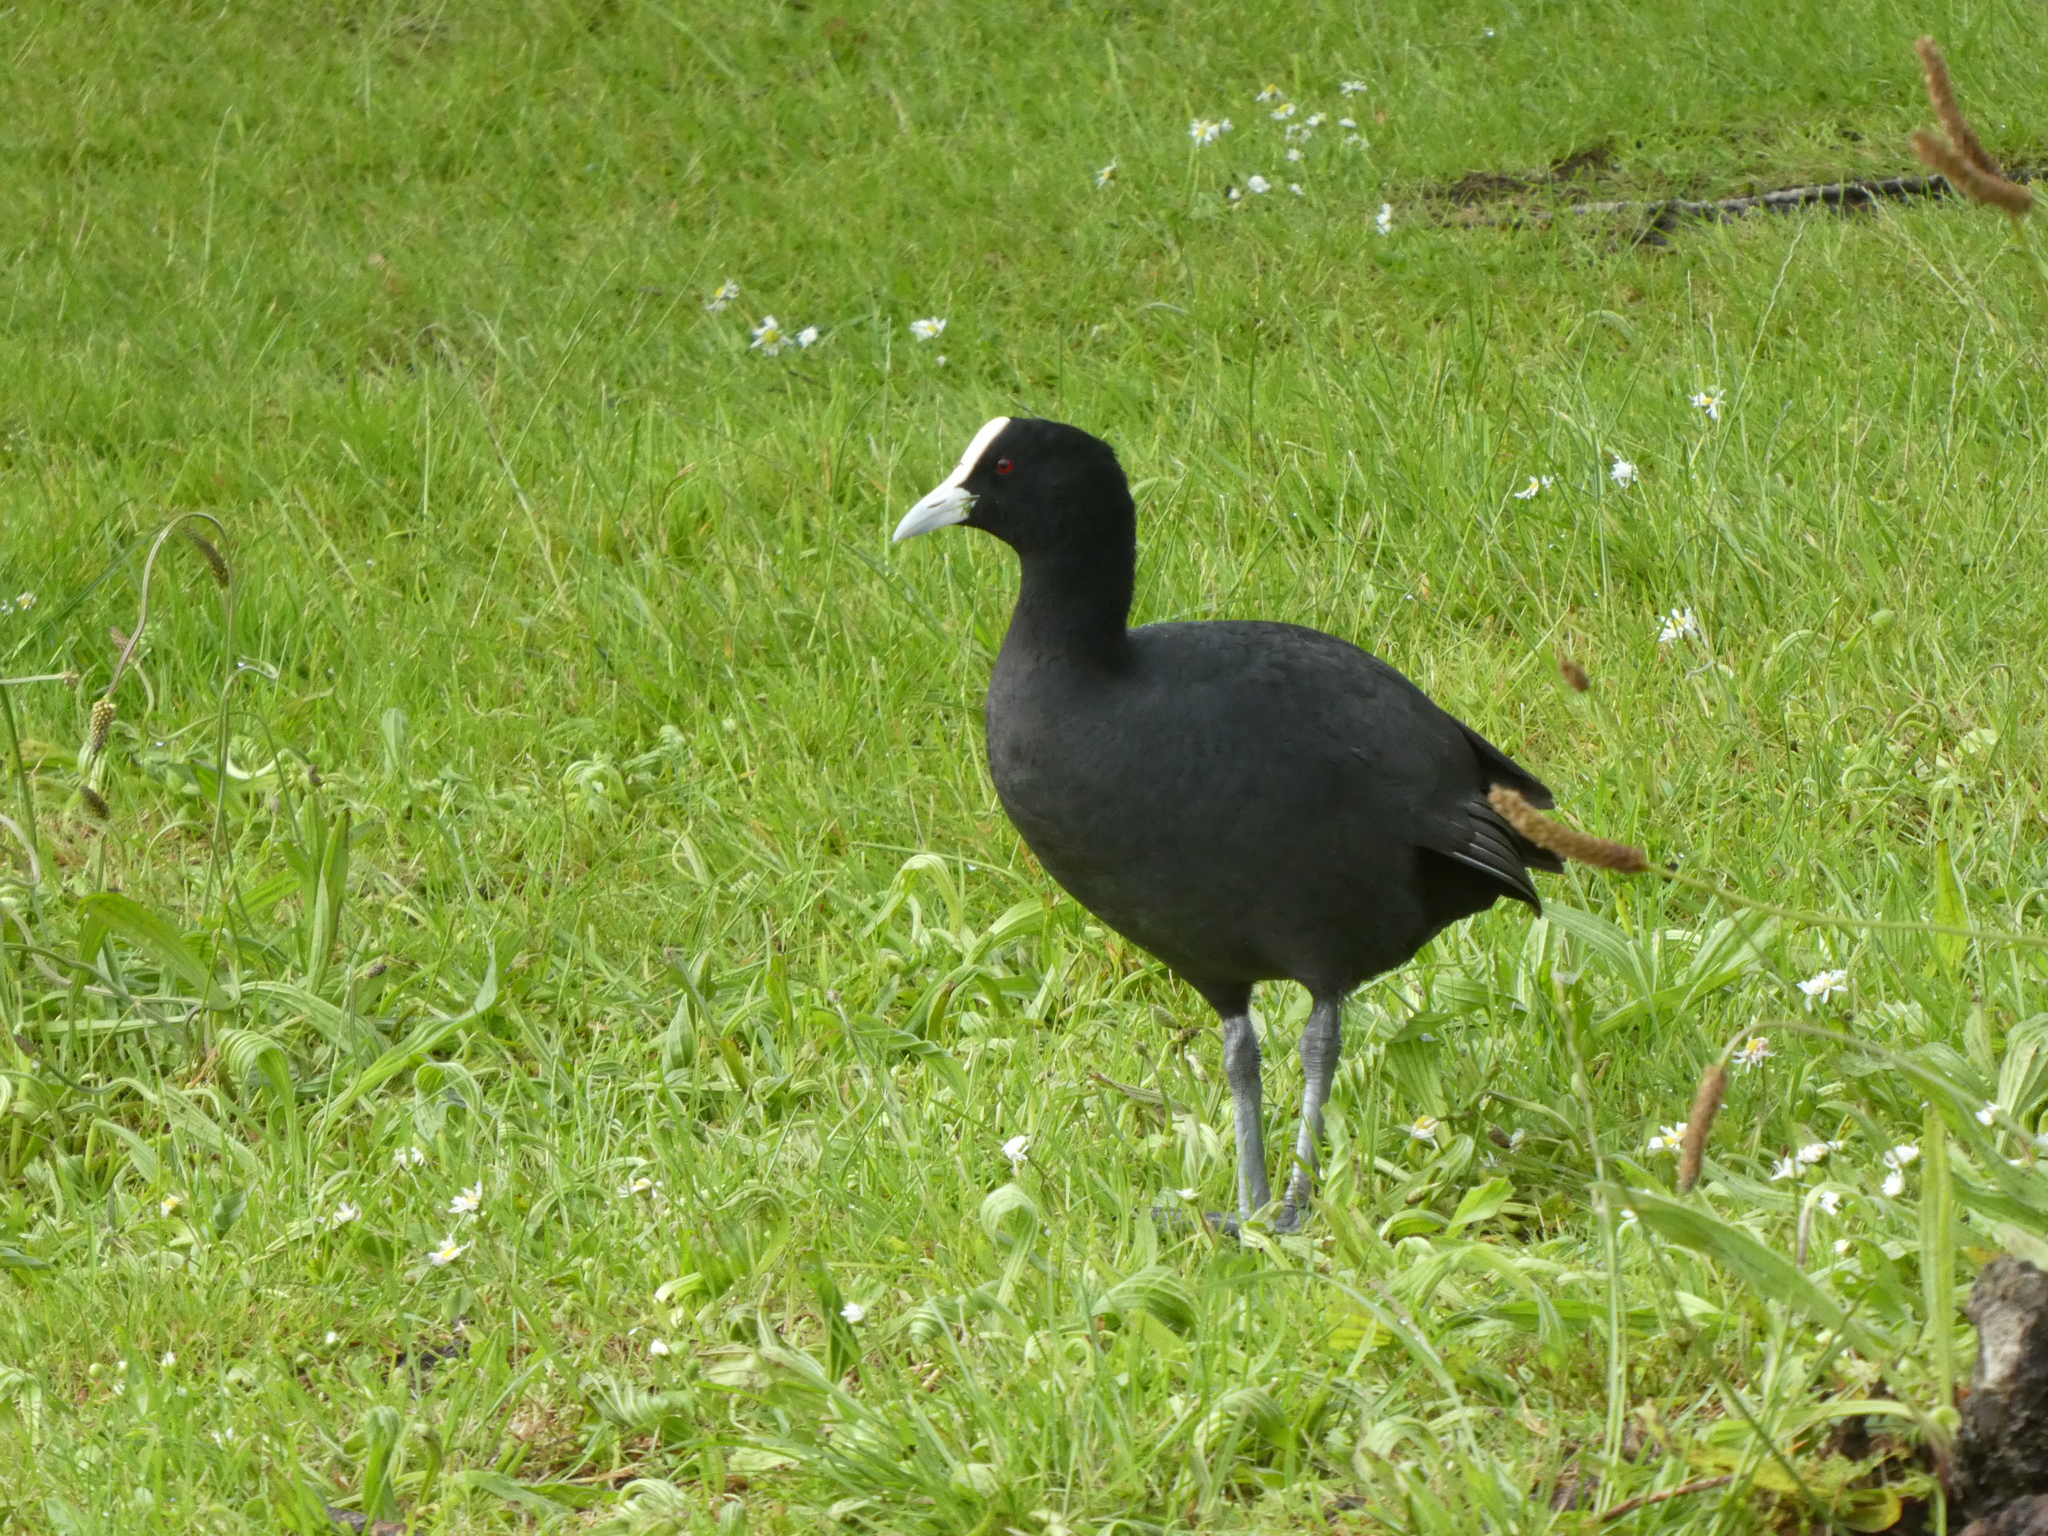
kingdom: Animalia
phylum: Chordata
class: Aves
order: Gruiformes
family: Rallidae
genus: Fulica
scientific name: Fulica atra
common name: Eurasian coot
